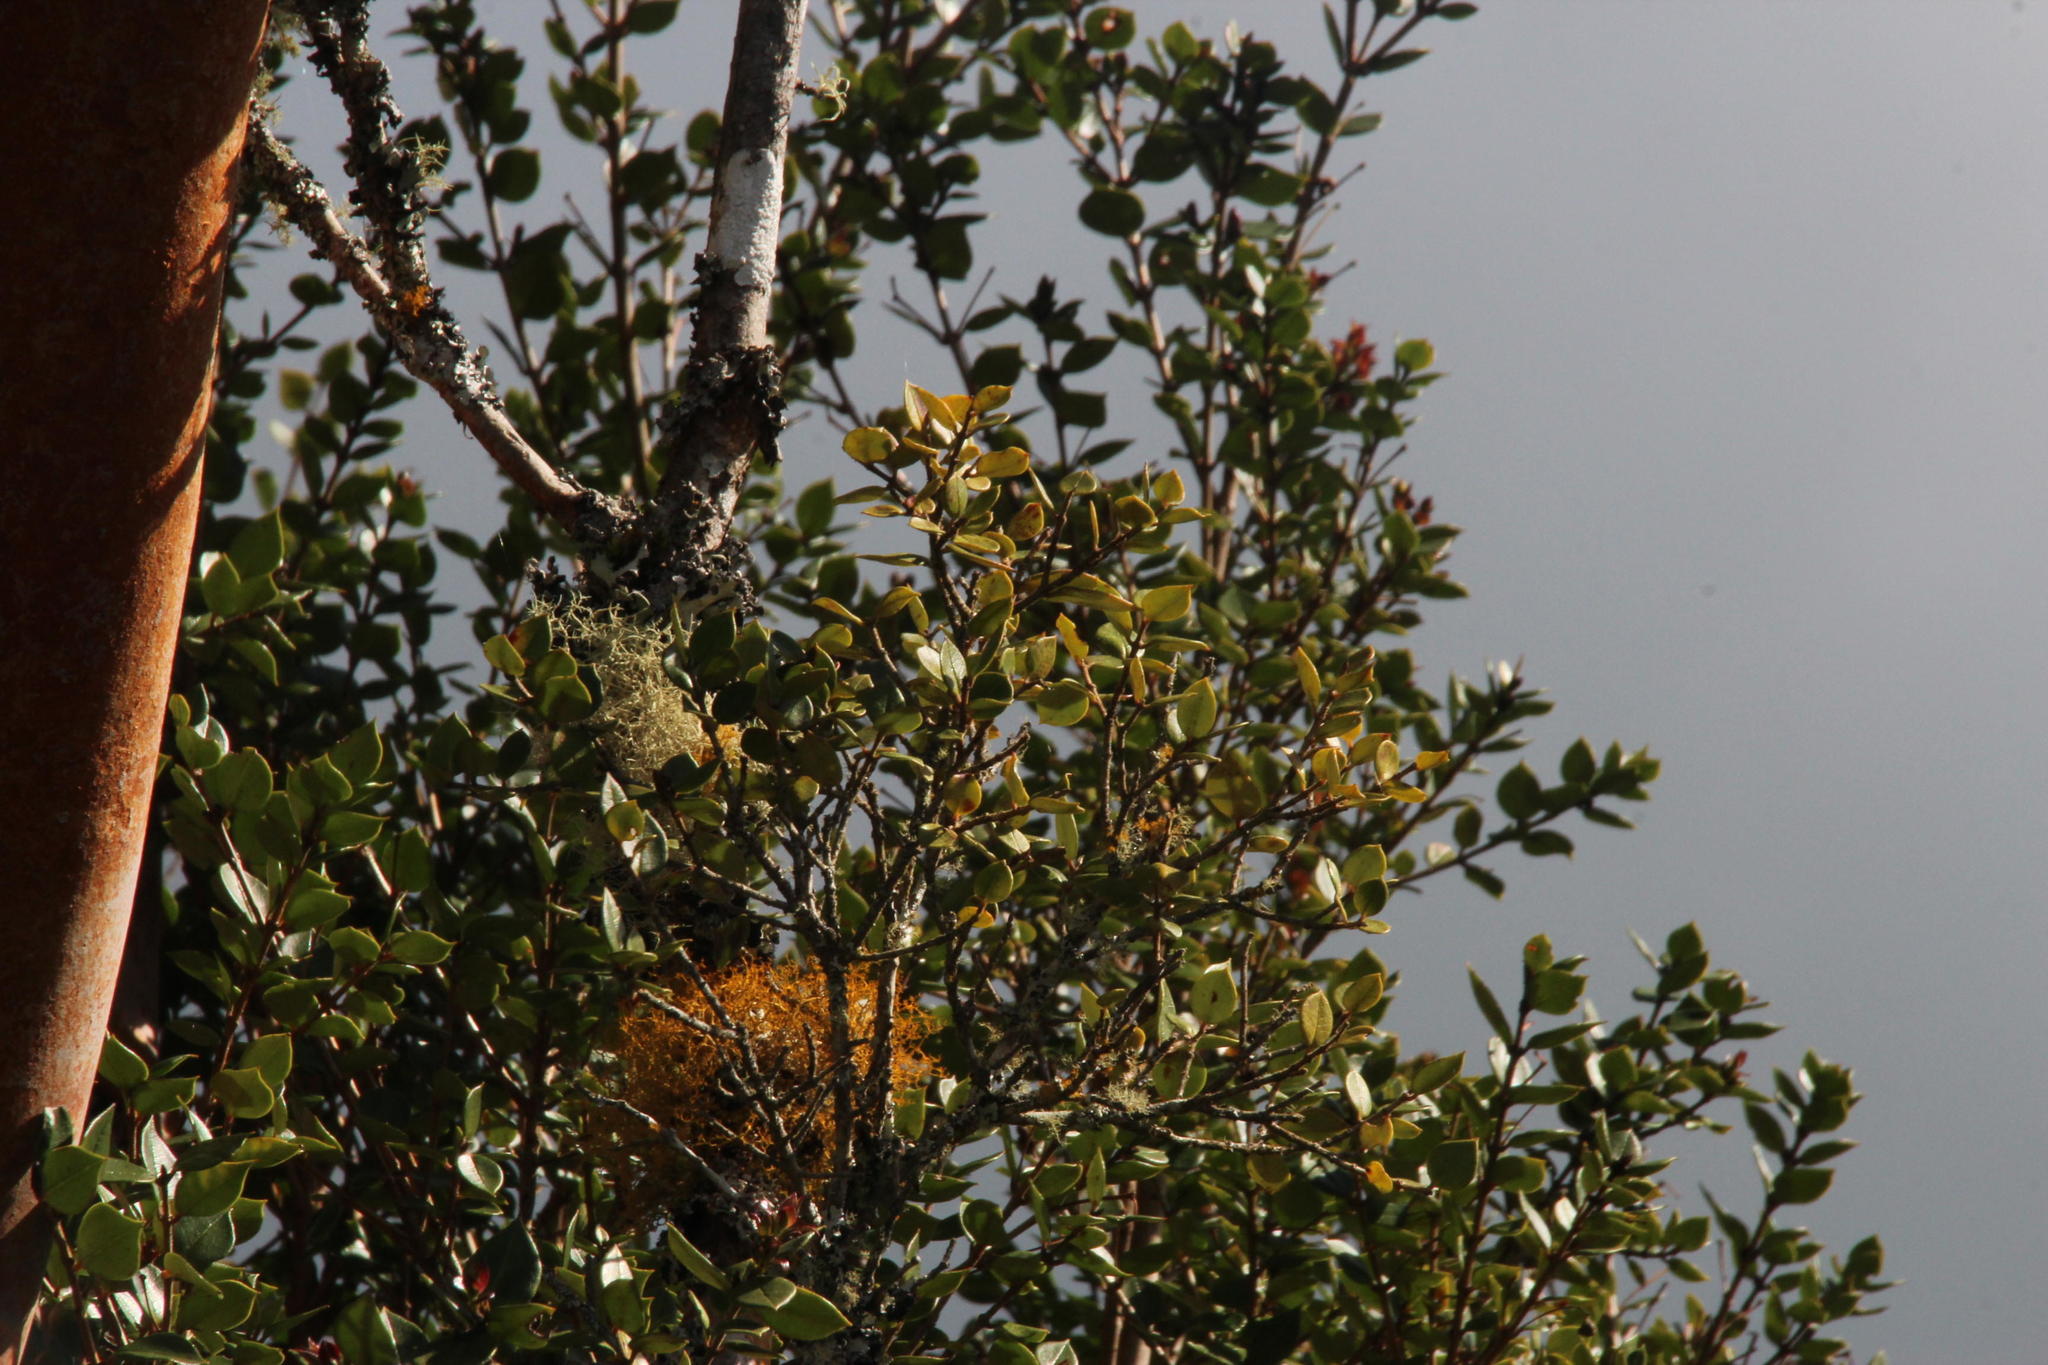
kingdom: Plantae
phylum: Tracheophyta
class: Magnoliopsida
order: Myrtales
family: Myrtaceae
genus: Luma
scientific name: Luma apiculata
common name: Chilean myrtle
